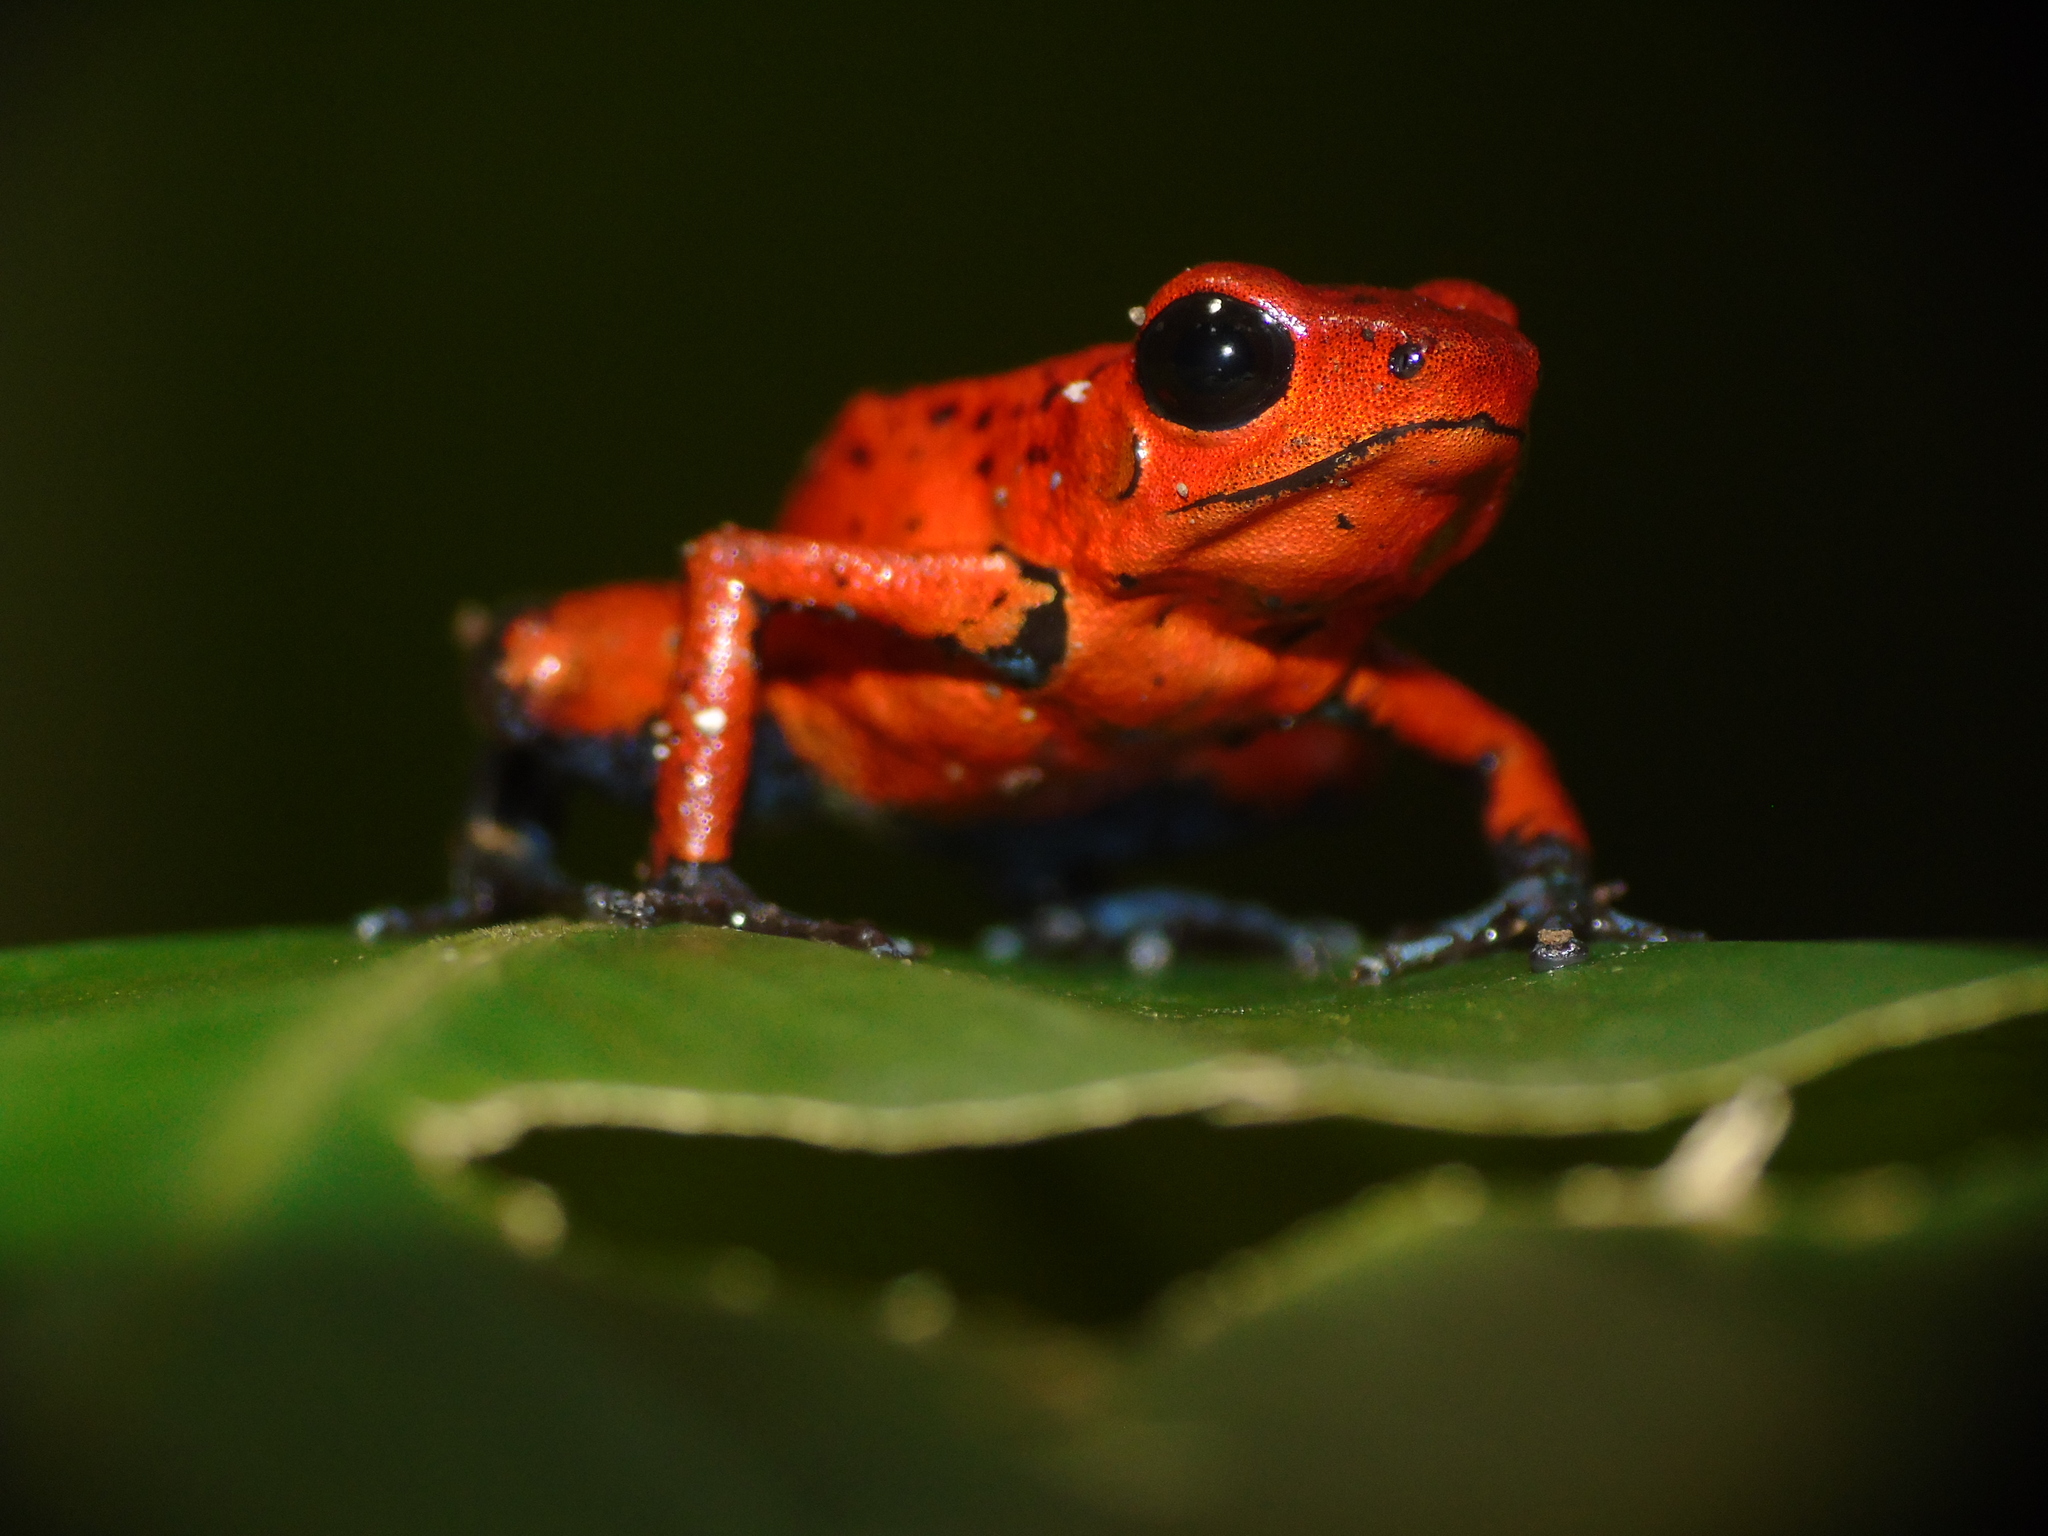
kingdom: Animalia
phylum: Chordata
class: Amphibia
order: Anura
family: Dendrobatidae
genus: Oophaga
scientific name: Oophaga pumilio
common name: Flaming poison frog
